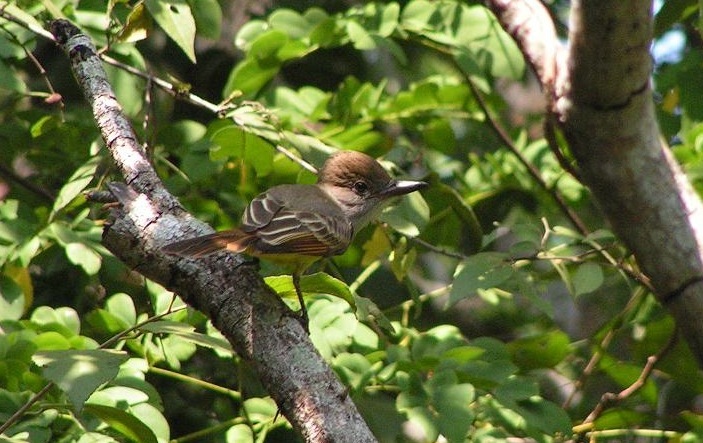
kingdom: Animalia
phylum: Chordata
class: Aves
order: Passeriformes
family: Tyrannidae
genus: Myiarchus
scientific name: Myiarchus
